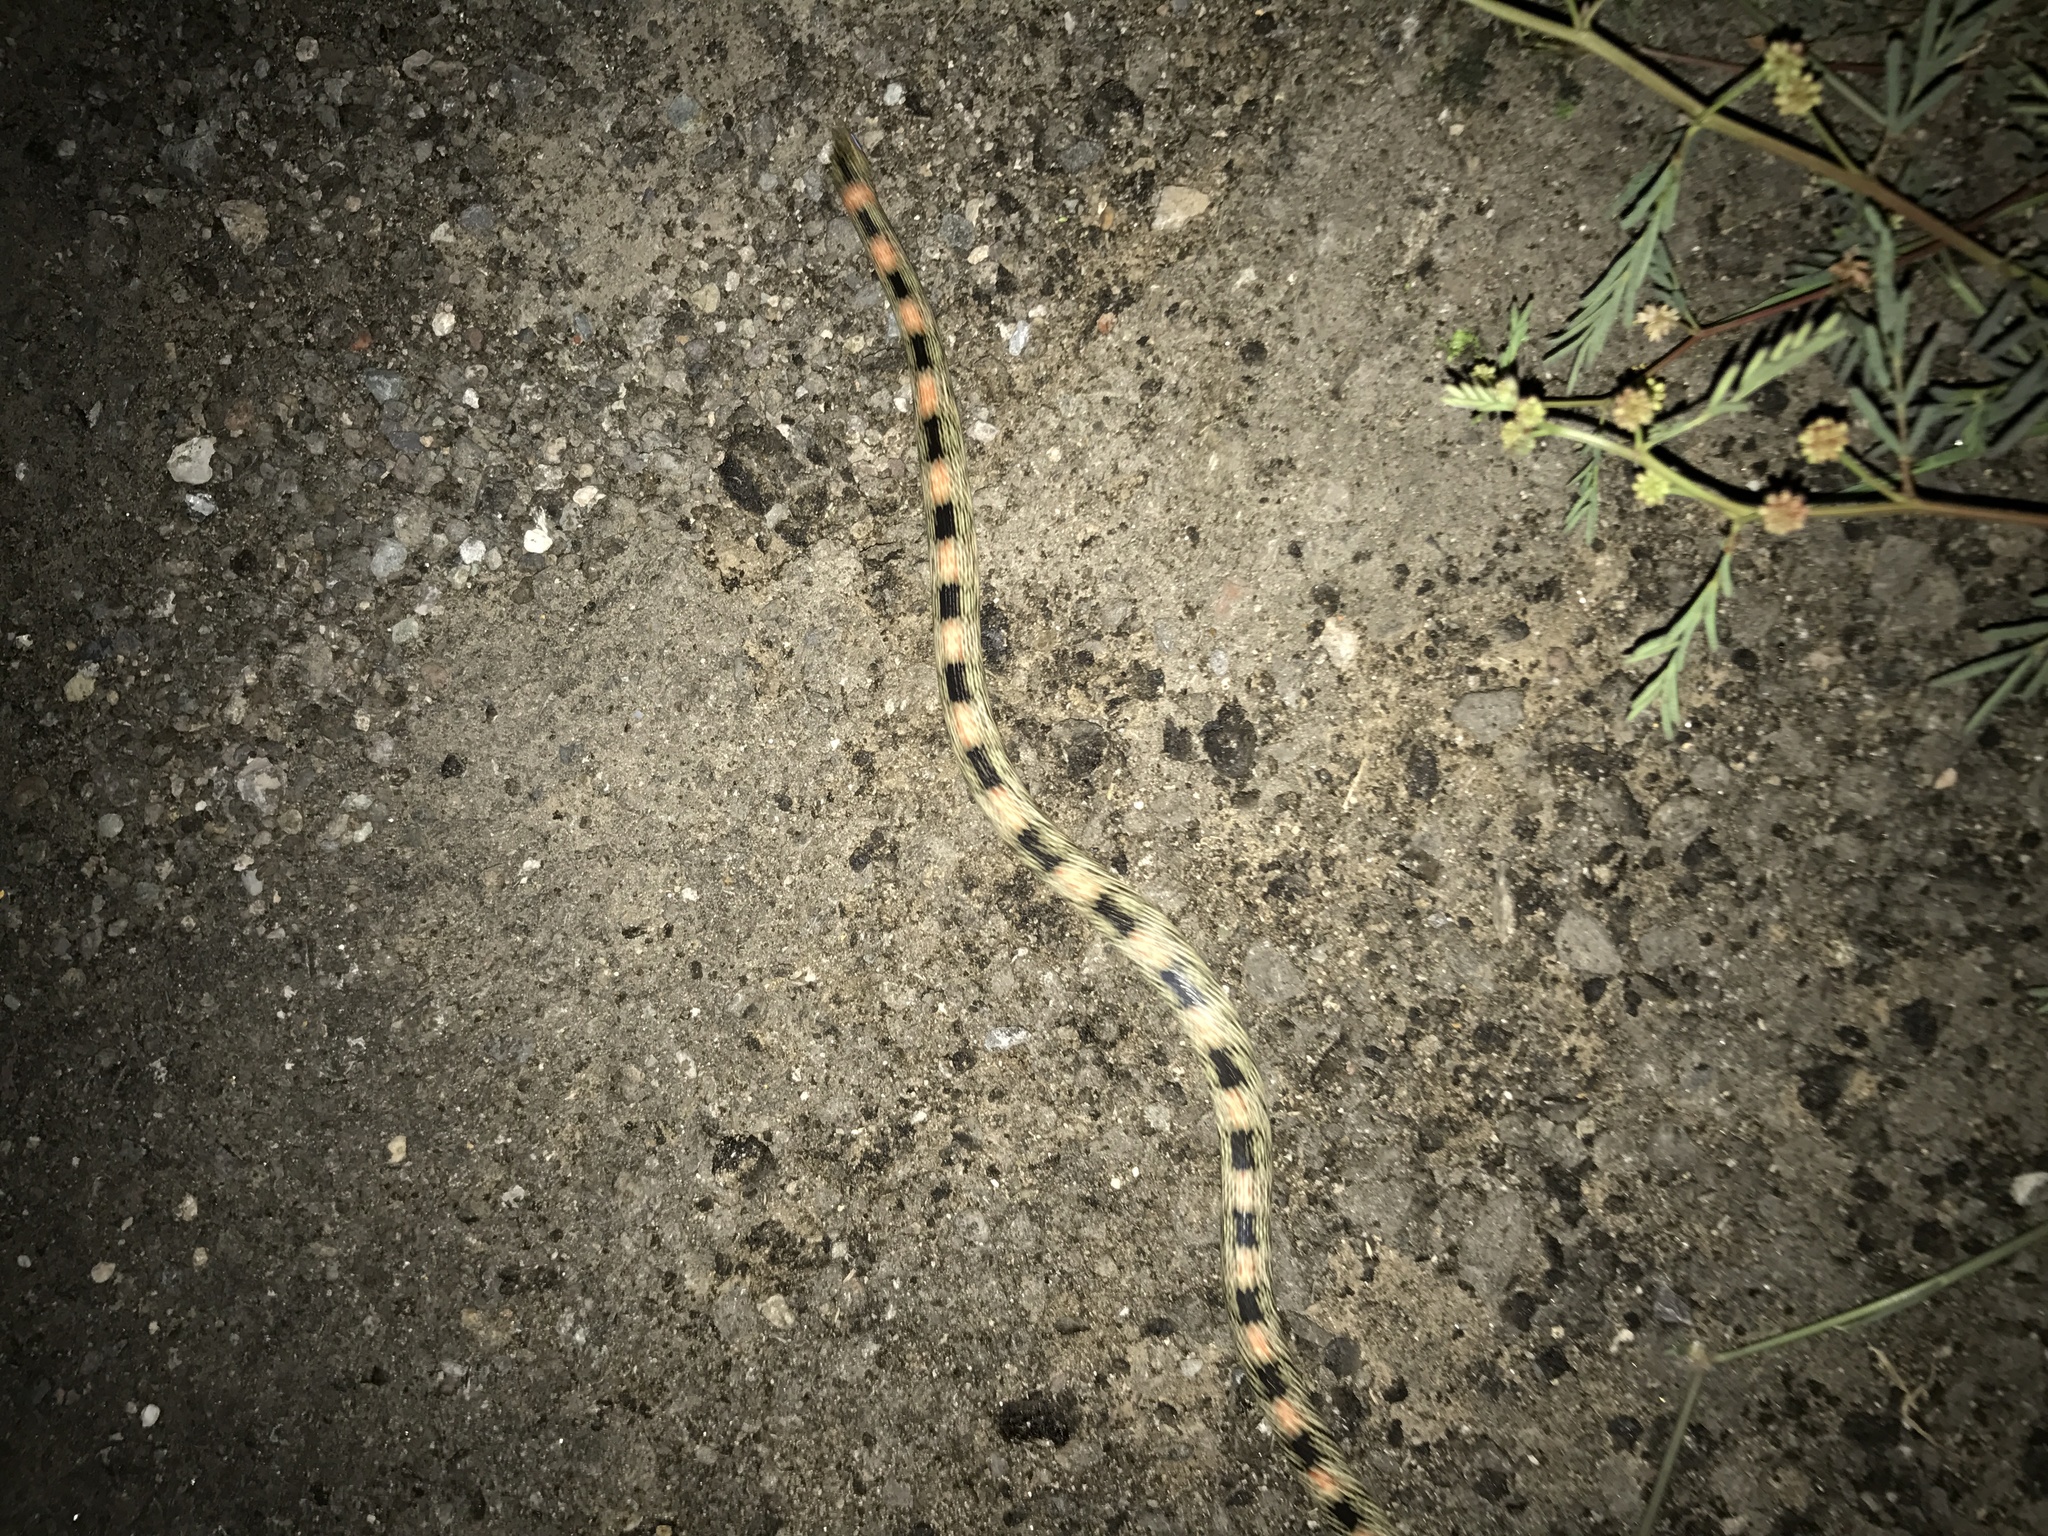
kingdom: Animalia
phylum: Chordata
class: Squamata
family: Colubridae
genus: Rhinocheilus
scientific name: Rhinocheilus lecontei
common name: Longnose snake
